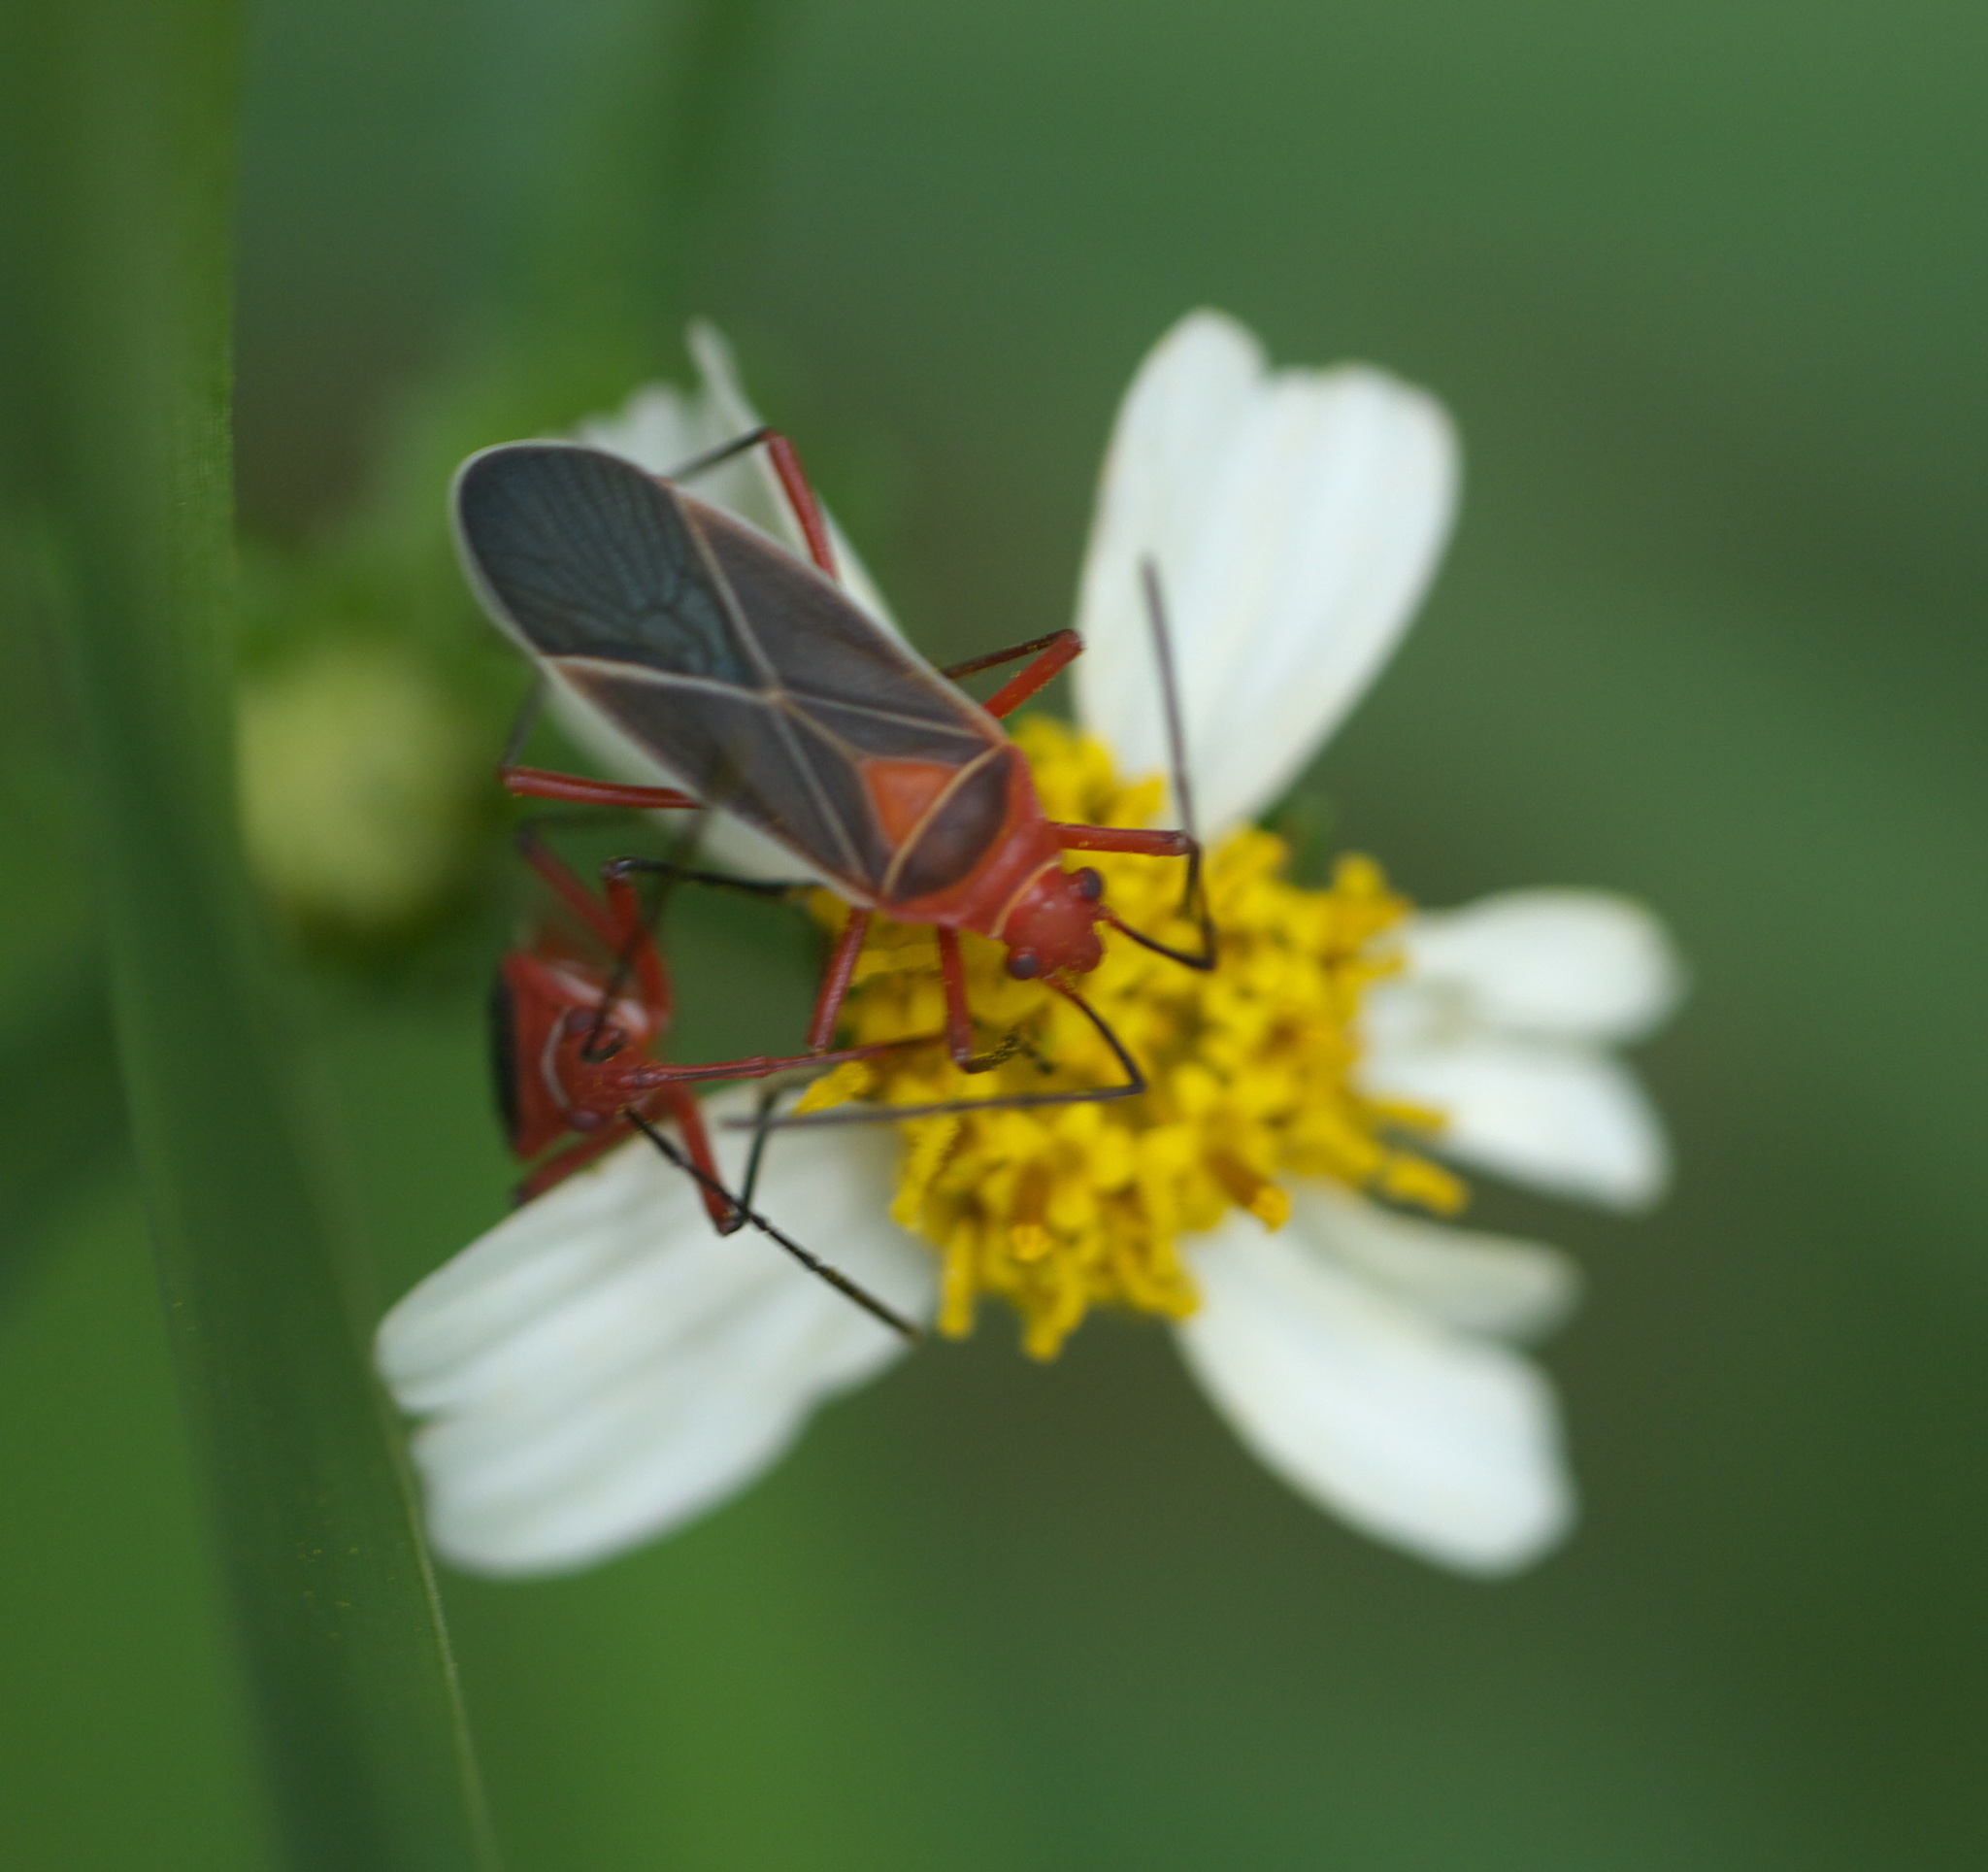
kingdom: Animalia
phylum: Arthropoda
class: Insecta
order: Hemiptera
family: Pyrrhocoridae
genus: Dysdercus
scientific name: Dysdercus suturellus
